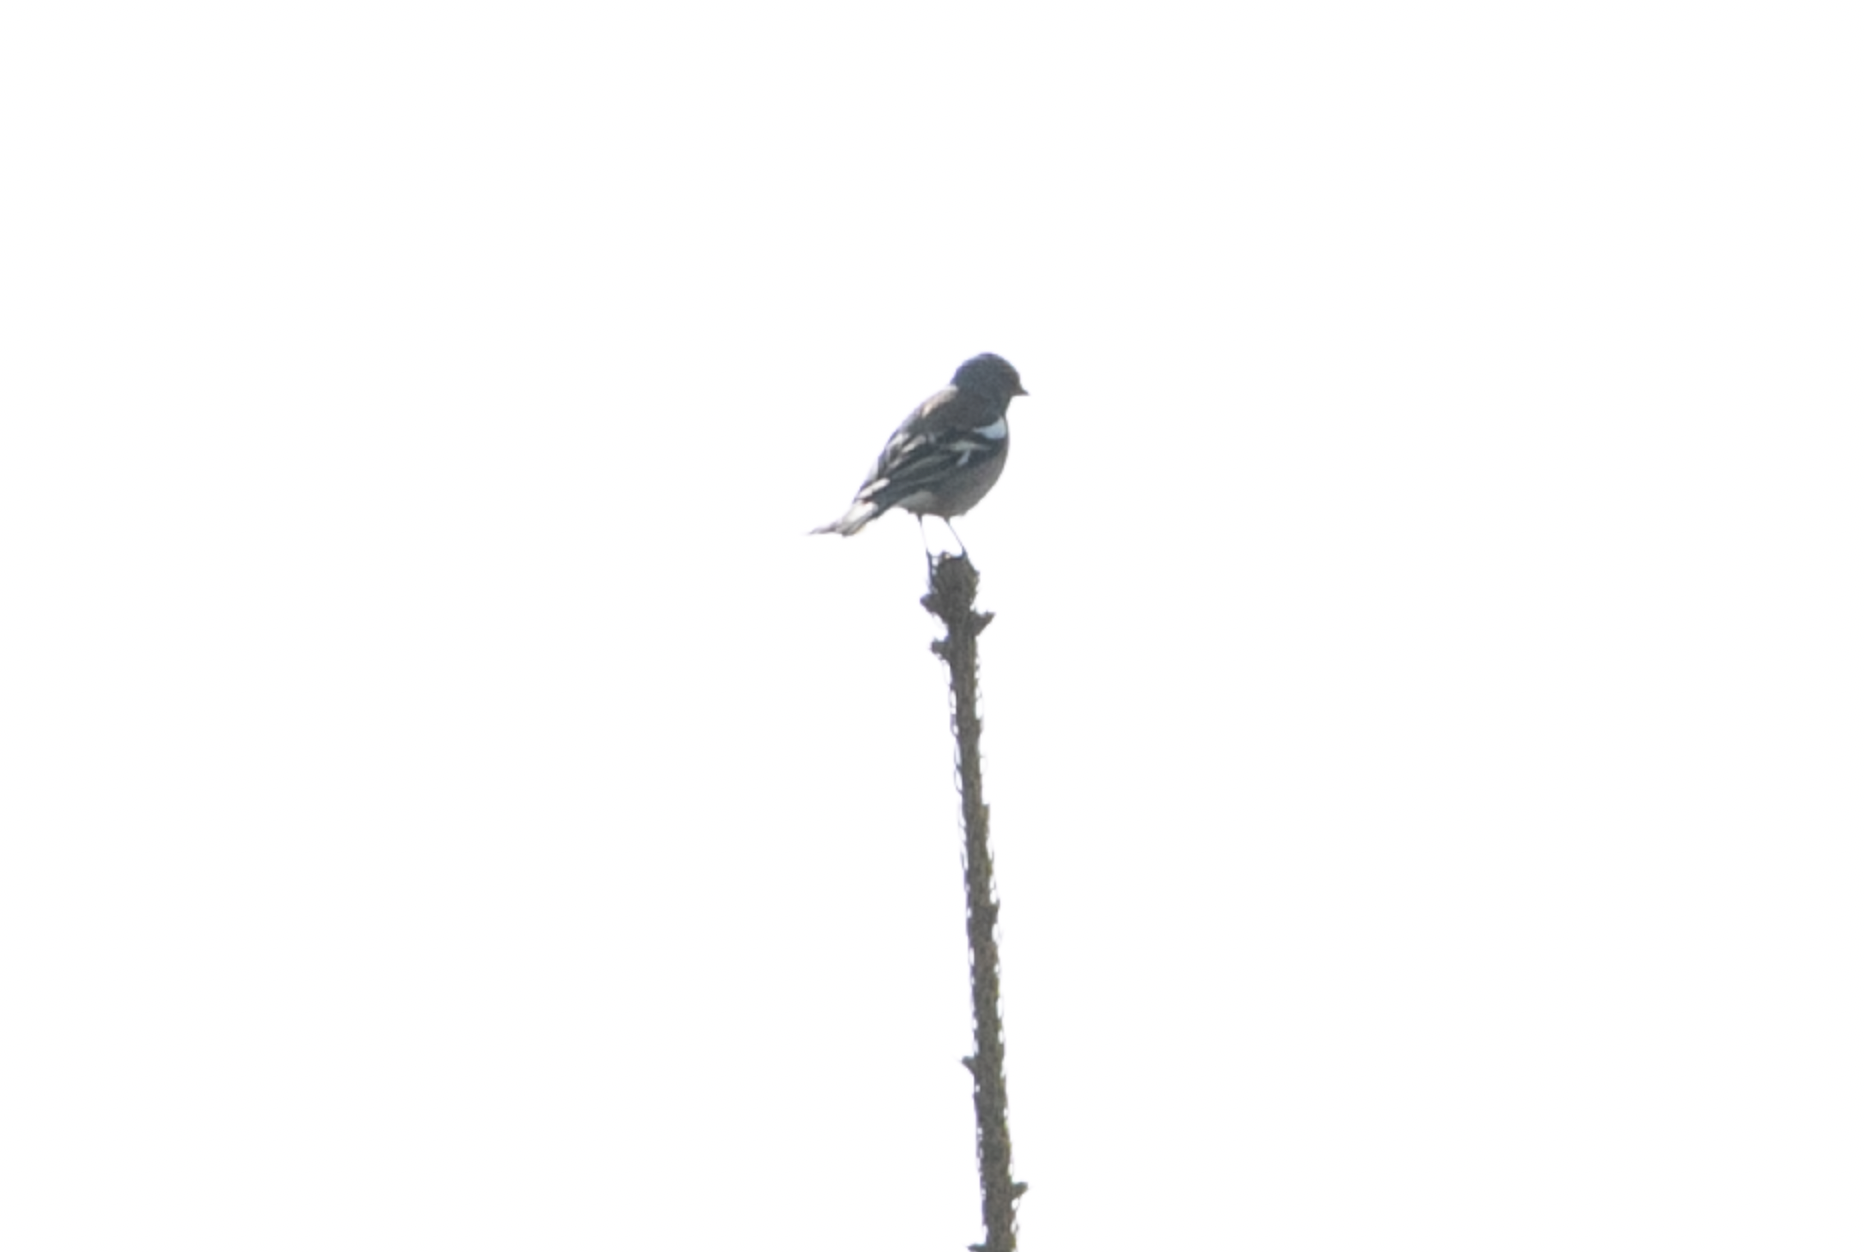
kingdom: Animalia
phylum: Chordata
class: Aves
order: Passeriformes
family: Fringillidae
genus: Fringilla
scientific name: Fringilla coelebs
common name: Common chaffinch
